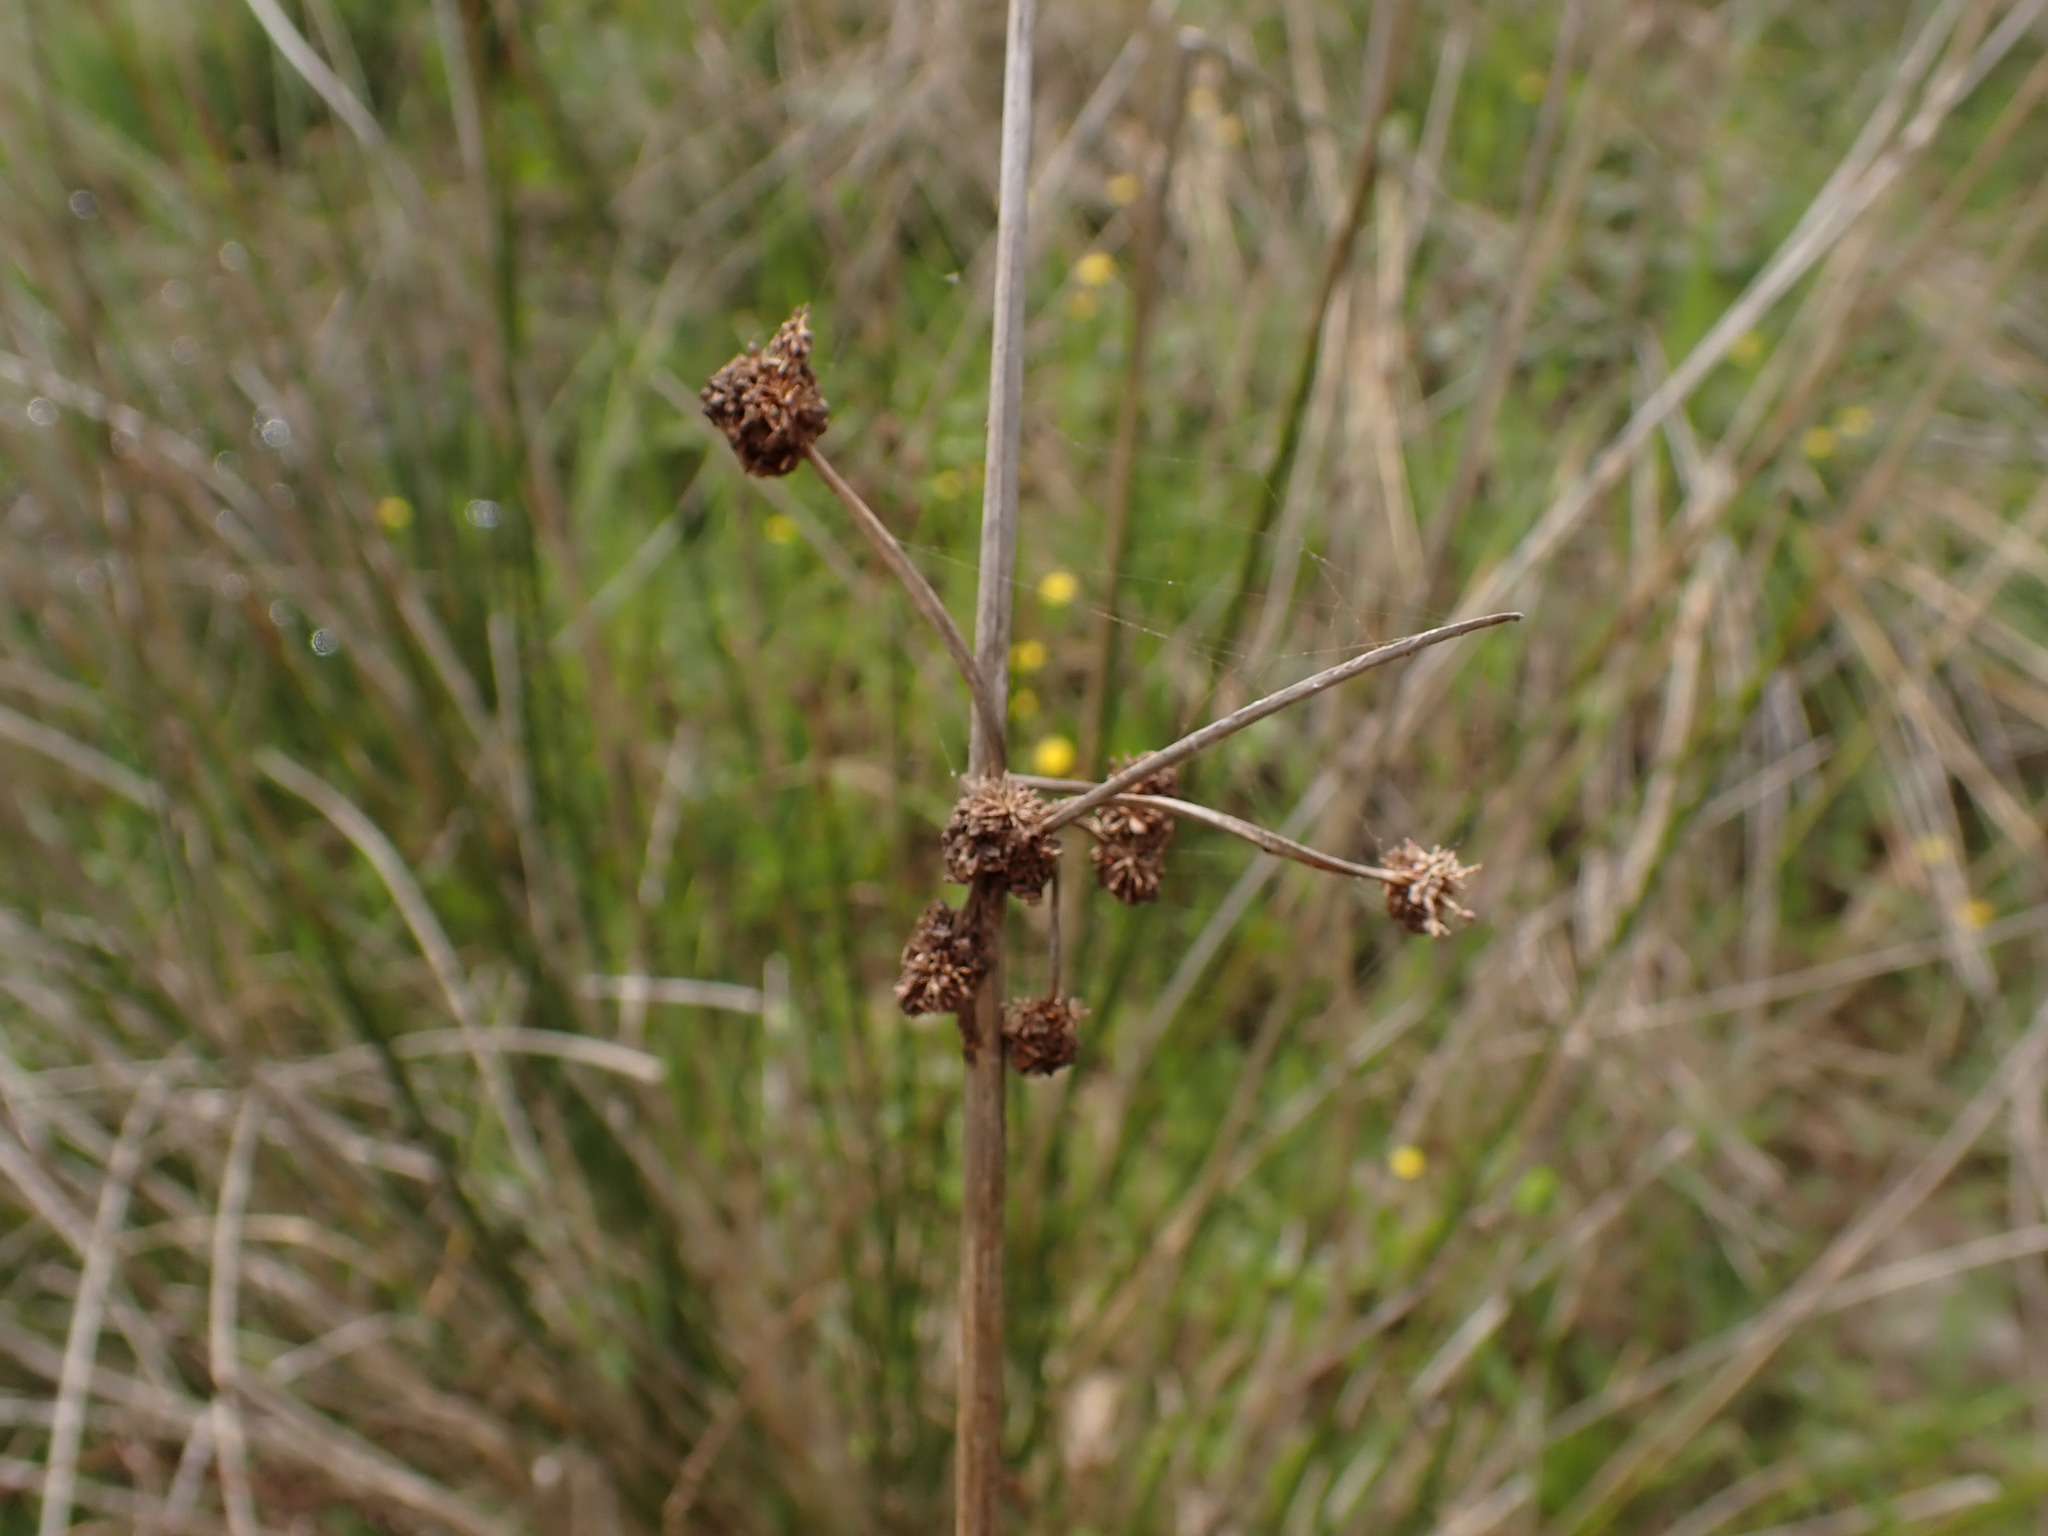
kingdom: Plantae
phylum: Tracheophyta
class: Liliopsida
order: Poales
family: Cyperaceae
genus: Scirpoides
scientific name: Scirpoides holoschoenus
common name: Round-headed club-rush
